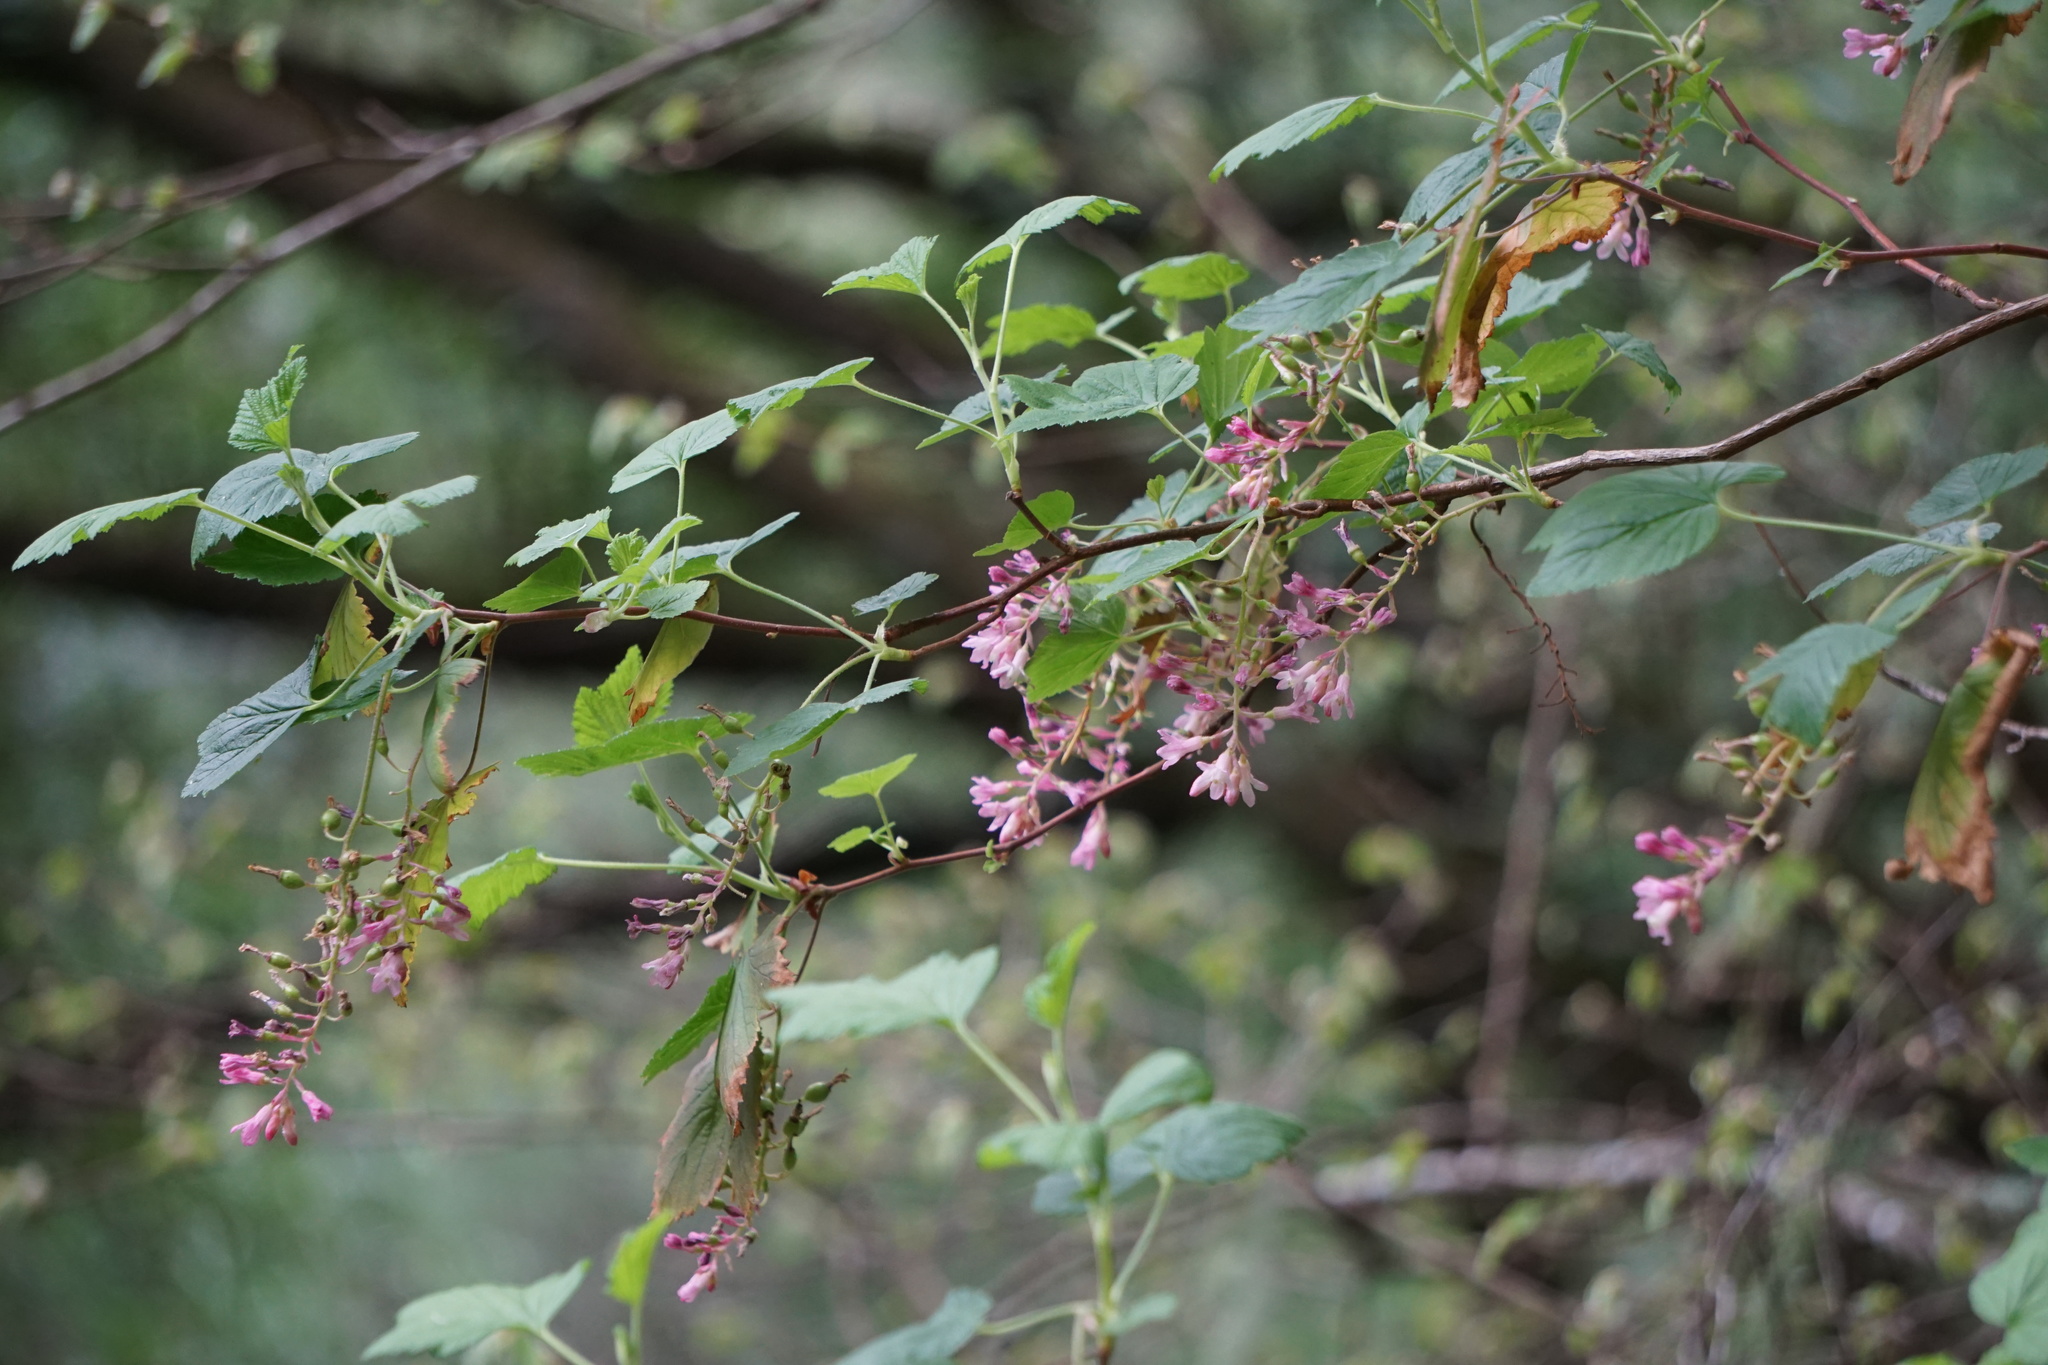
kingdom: Plantae
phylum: Tracheophyta
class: Magnoliopsida
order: Saxifragales
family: Grossulariaceae
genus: Ribes
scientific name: Ribes sanguineum
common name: Flowering currant
